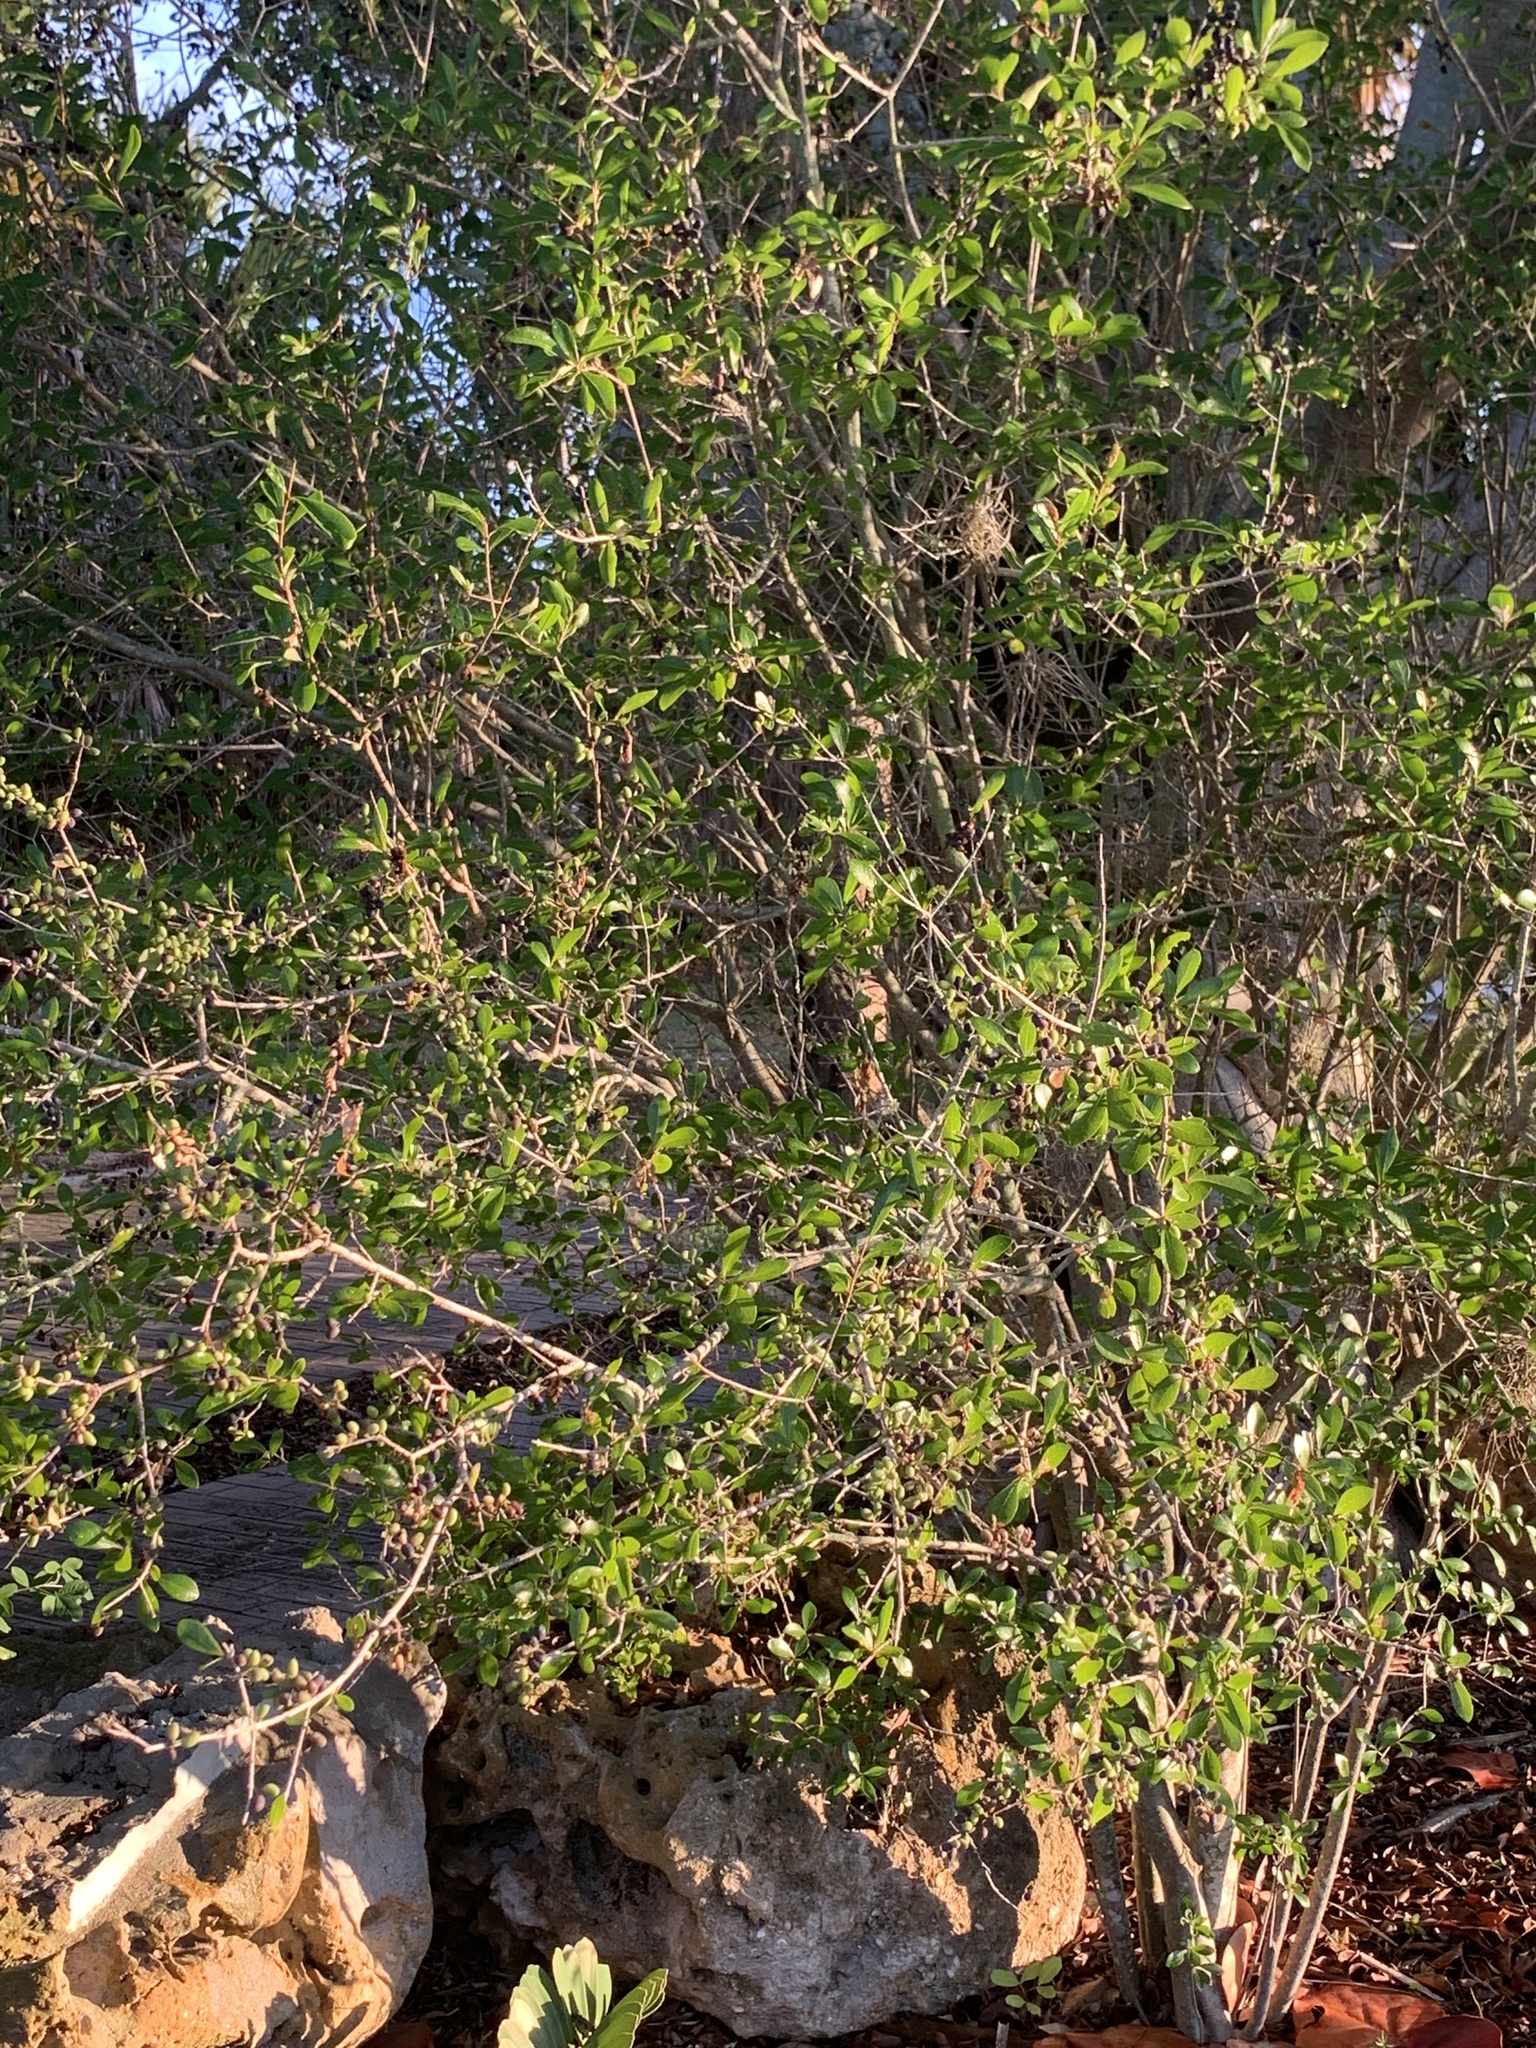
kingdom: Plantae
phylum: Tracheophyta
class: Magnoliopsida
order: Lamiales
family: Oleaceae
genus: Forestiera
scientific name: Forestiera segregata
